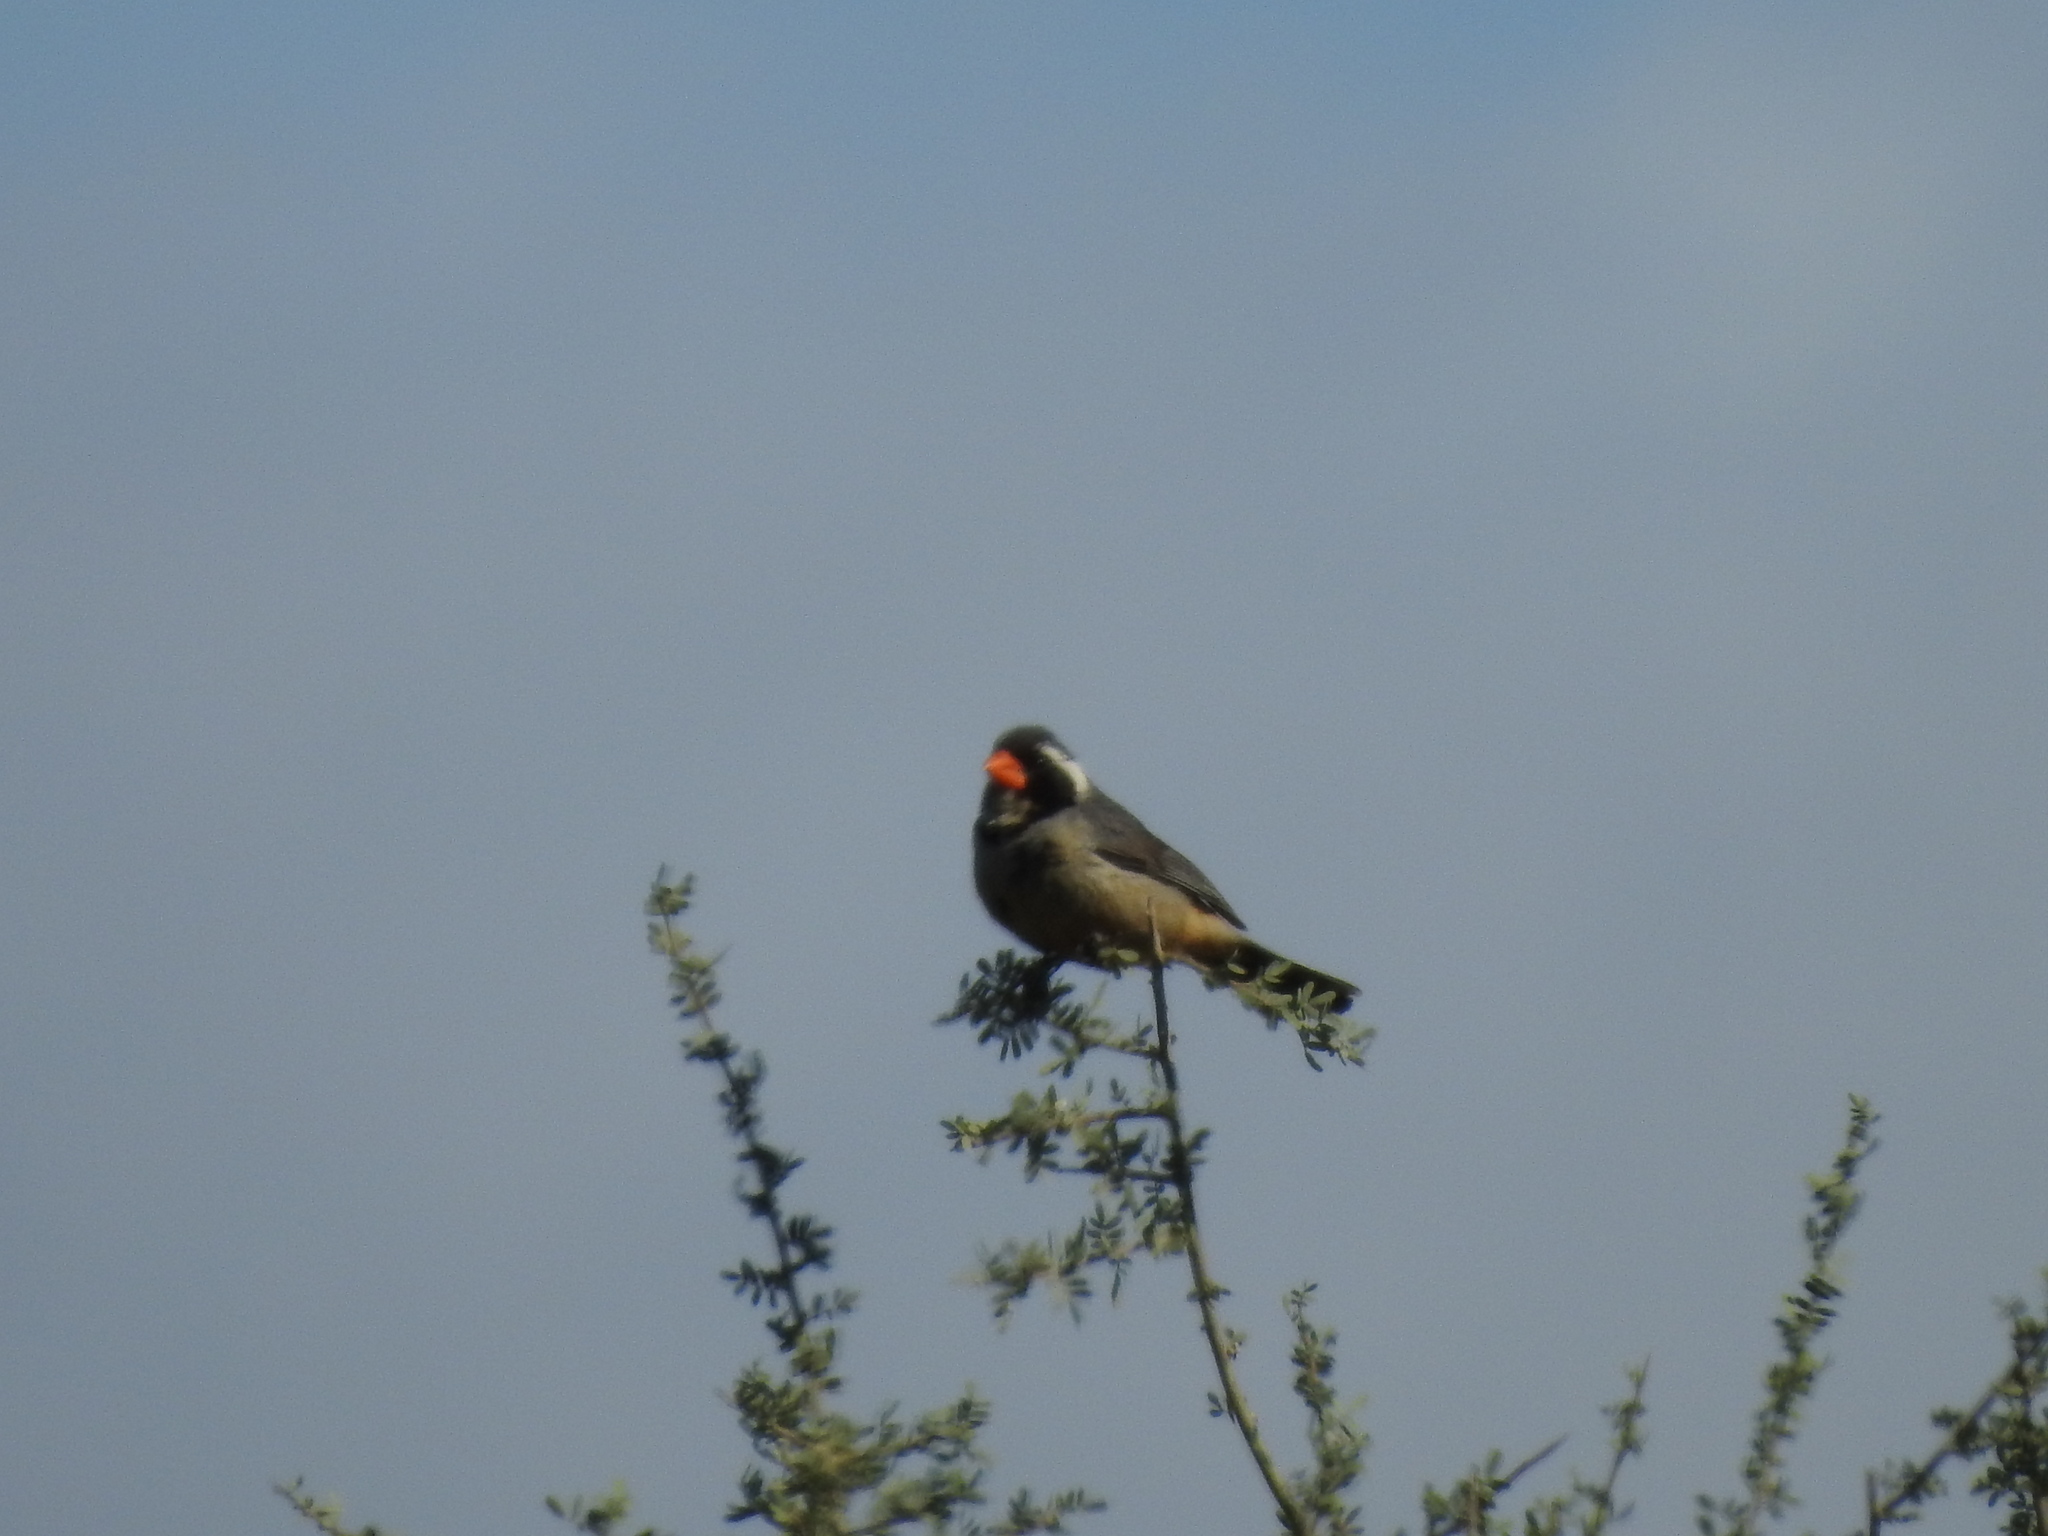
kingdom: Animalia
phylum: Chordata
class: Aves
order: Passeriformes
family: Thraupidae
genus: Saltator
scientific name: Saltator aurantiirostris
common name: Golden-billed saltator
